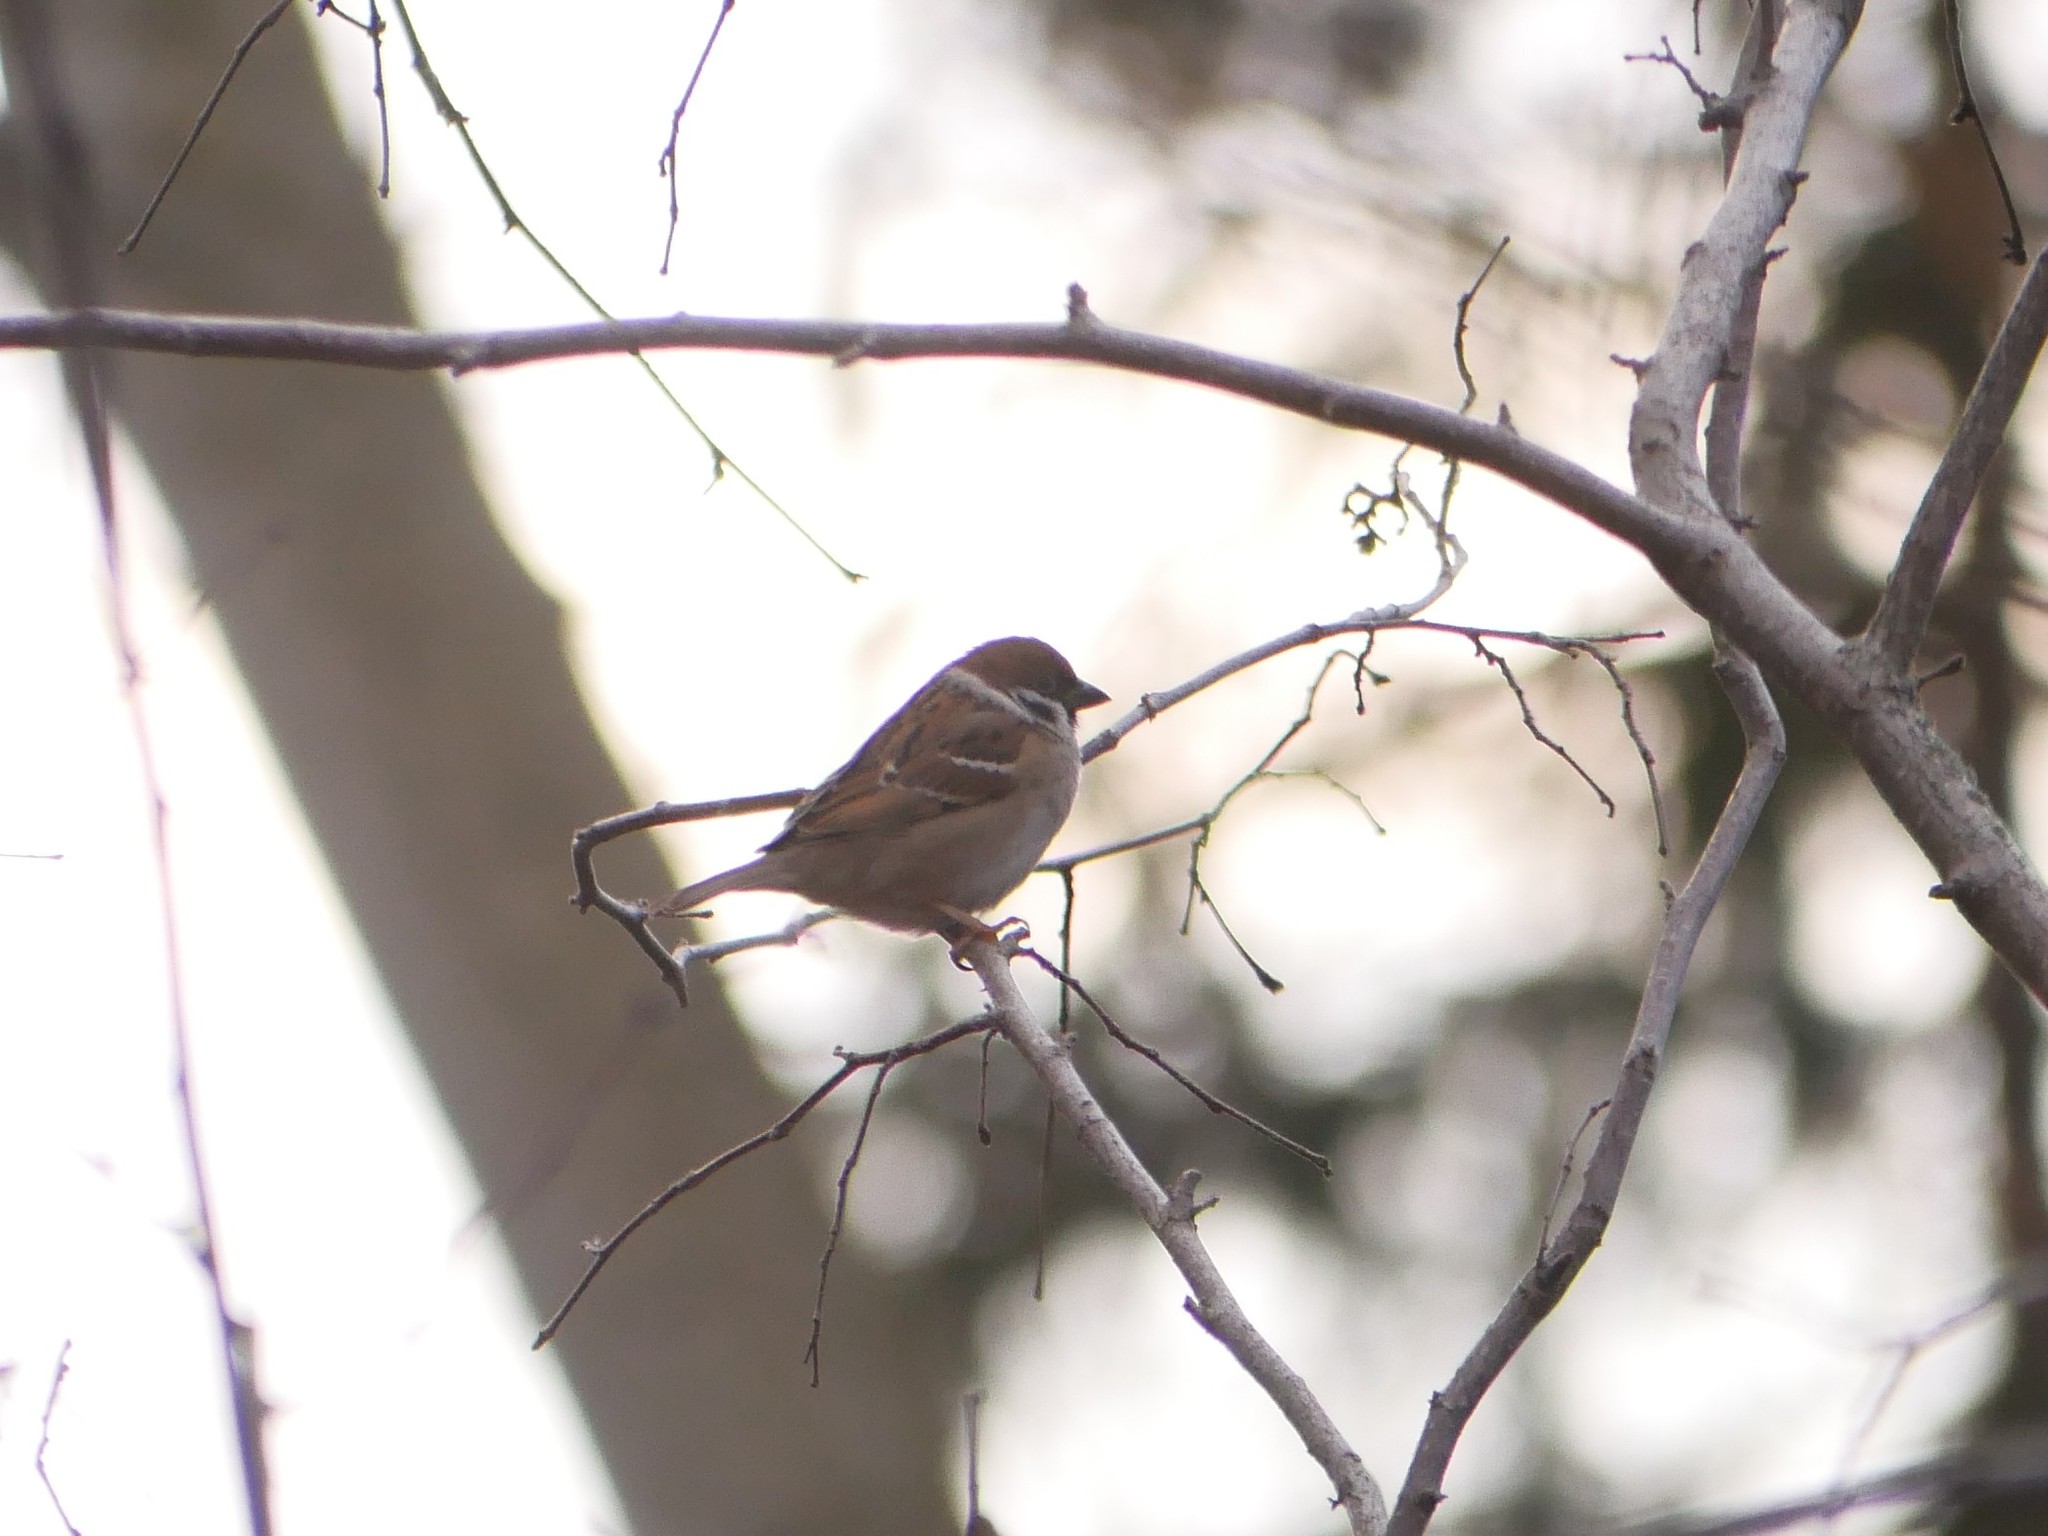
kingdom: Animalia
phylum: Chordata
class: Aves
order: Passeriformes
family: Passeridae
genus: Passer
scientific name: Passer montanus
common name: Eurasian tree sparrow
